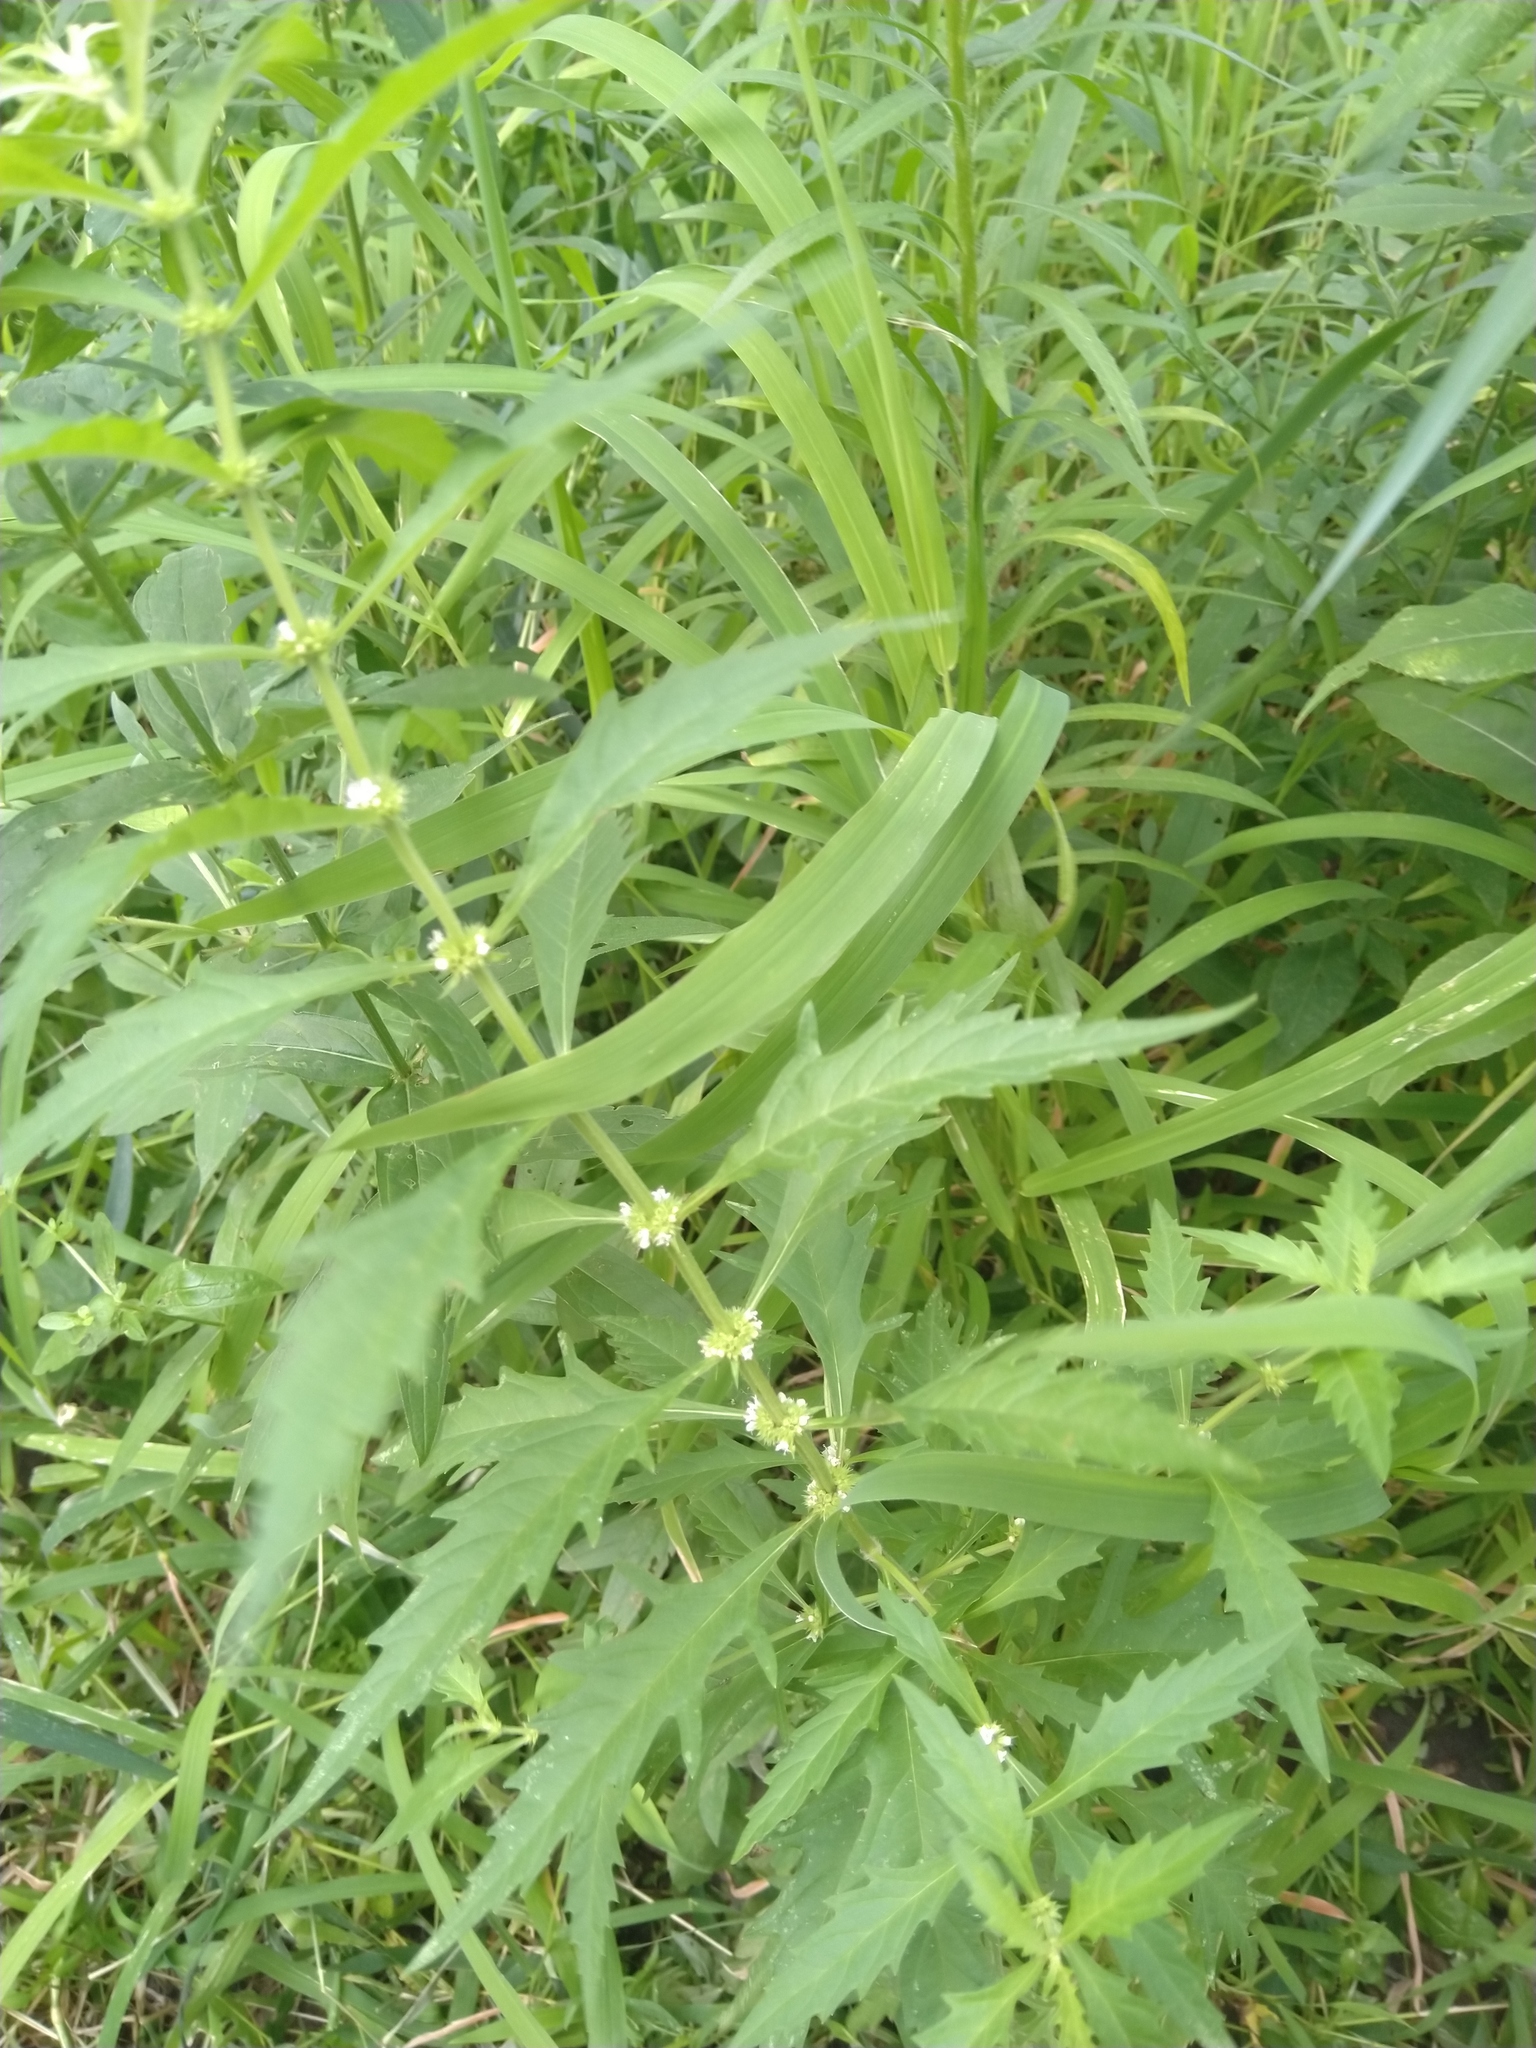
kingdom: Plantae
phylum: Tracheophyta
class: Magnoliopsida
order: Lamiales
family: Lamiaceae
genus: Lycopus
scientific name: Lycopus americanus
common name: American bugleweed
